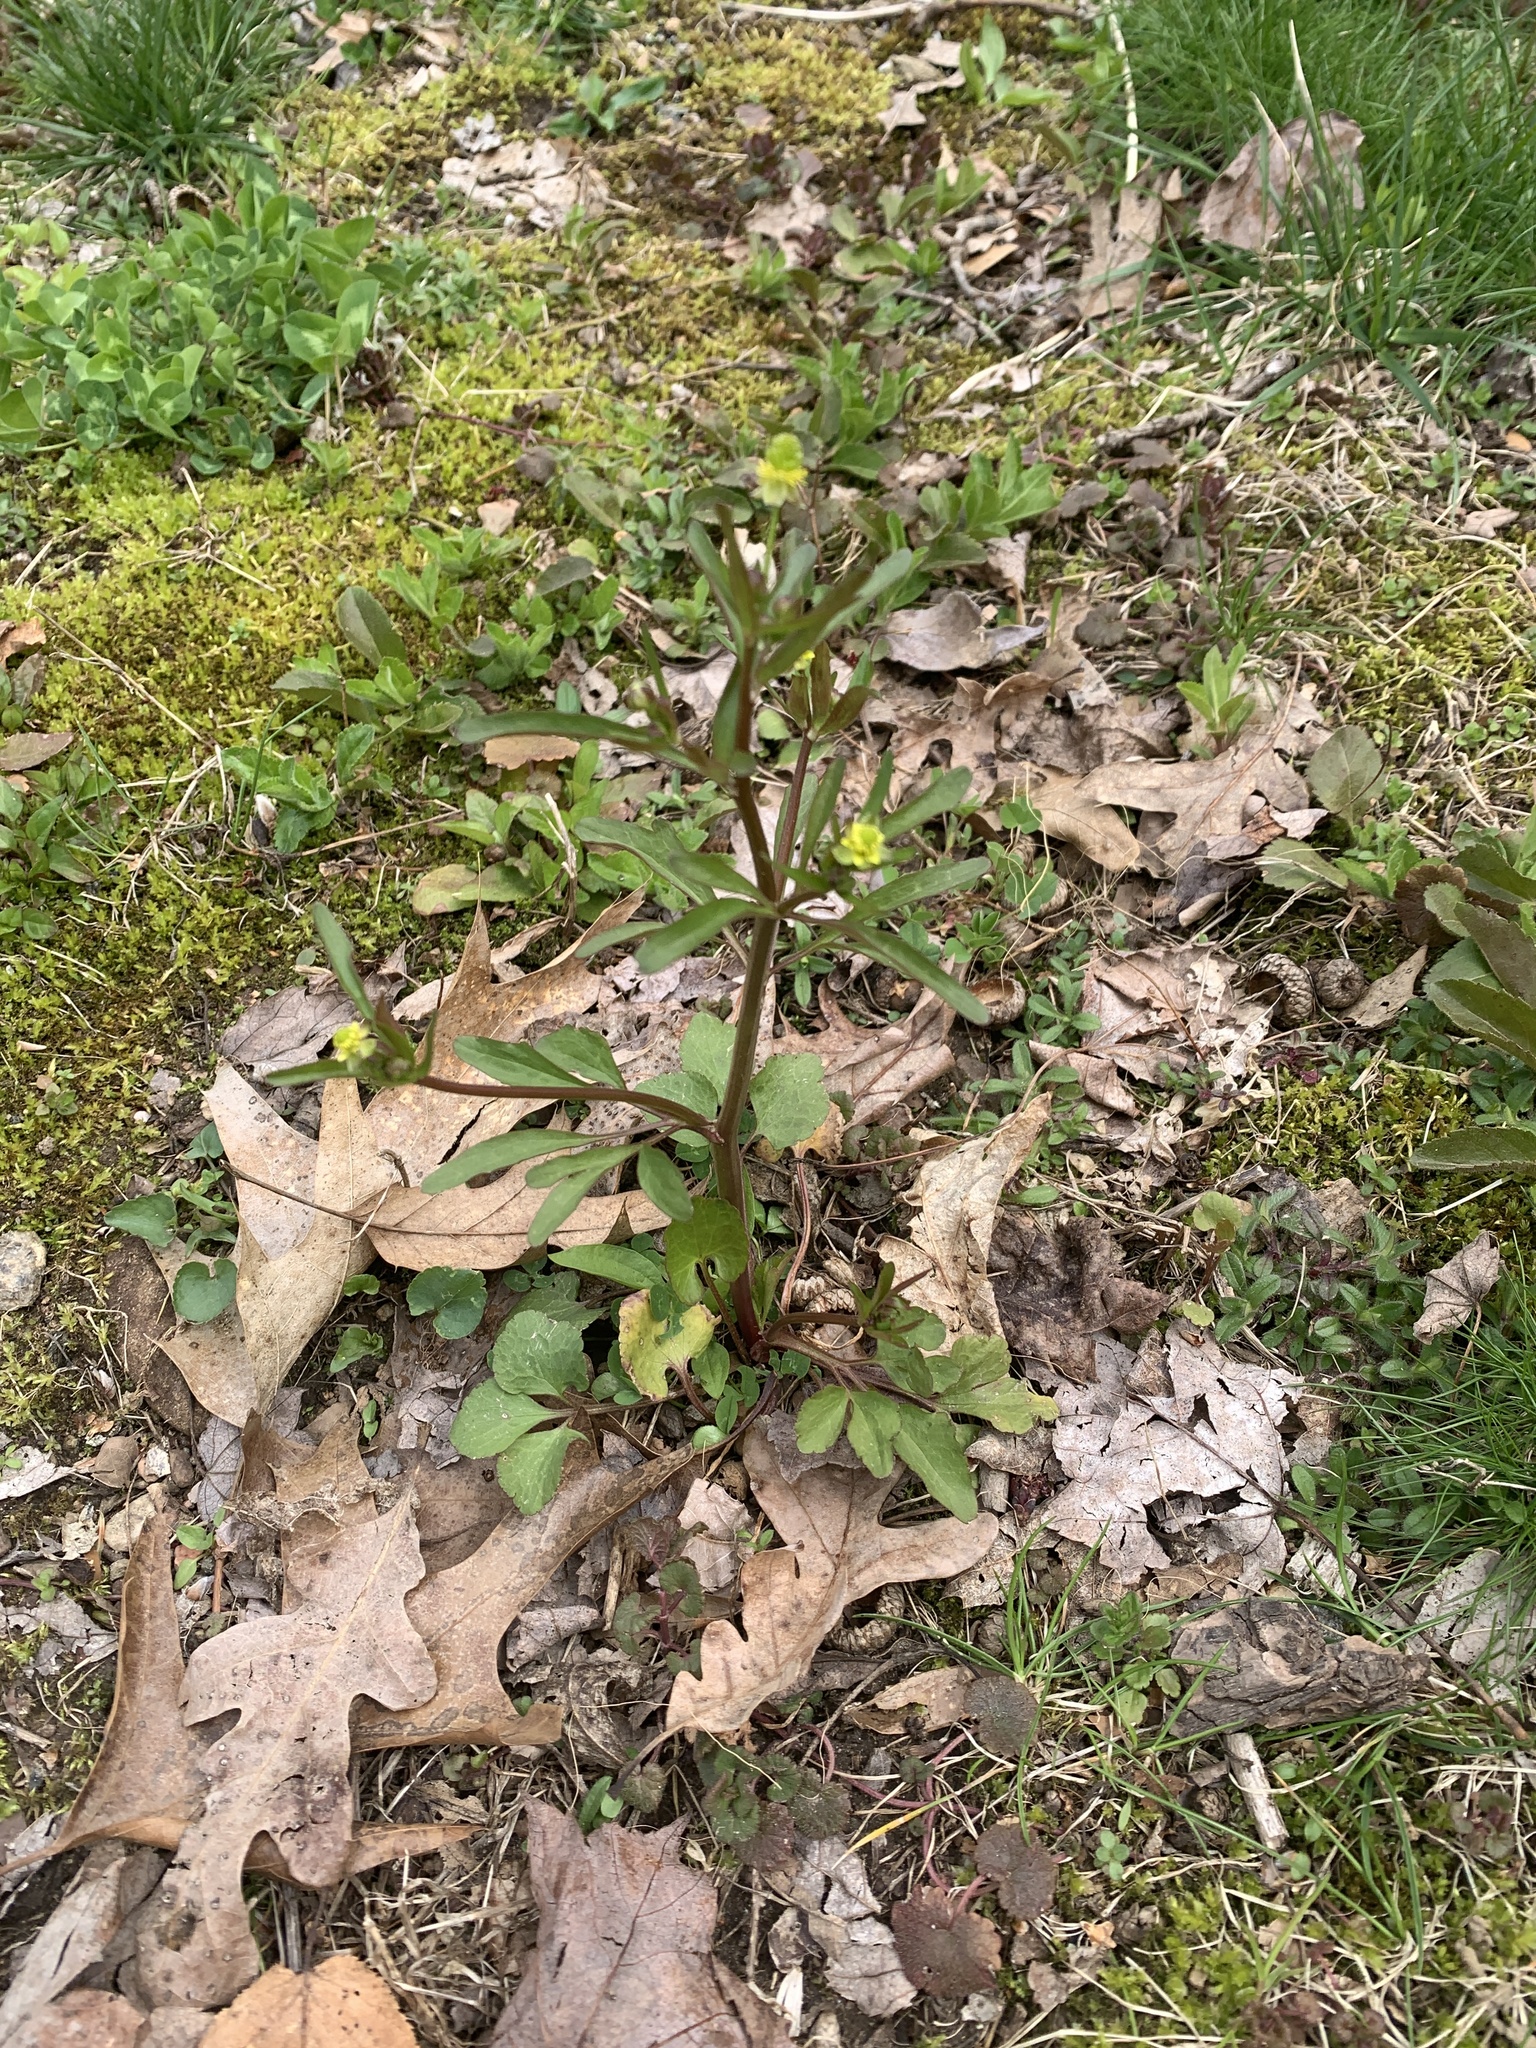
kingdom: Plantae
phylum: Tracheophyta
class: Magnoliopsida
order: Ranunculales
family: Ranunculaceae
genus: Ranunculus
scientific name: Ranunculus abortivus
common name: Early wood buttercup
